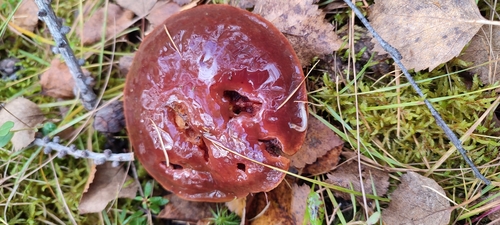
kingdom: Fungi
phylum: Basidiomycota
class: Agaricomycetes
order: Boletales
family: Suillaceae
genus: Suillus
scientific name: Suillus grevillei
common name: Larch bolete
